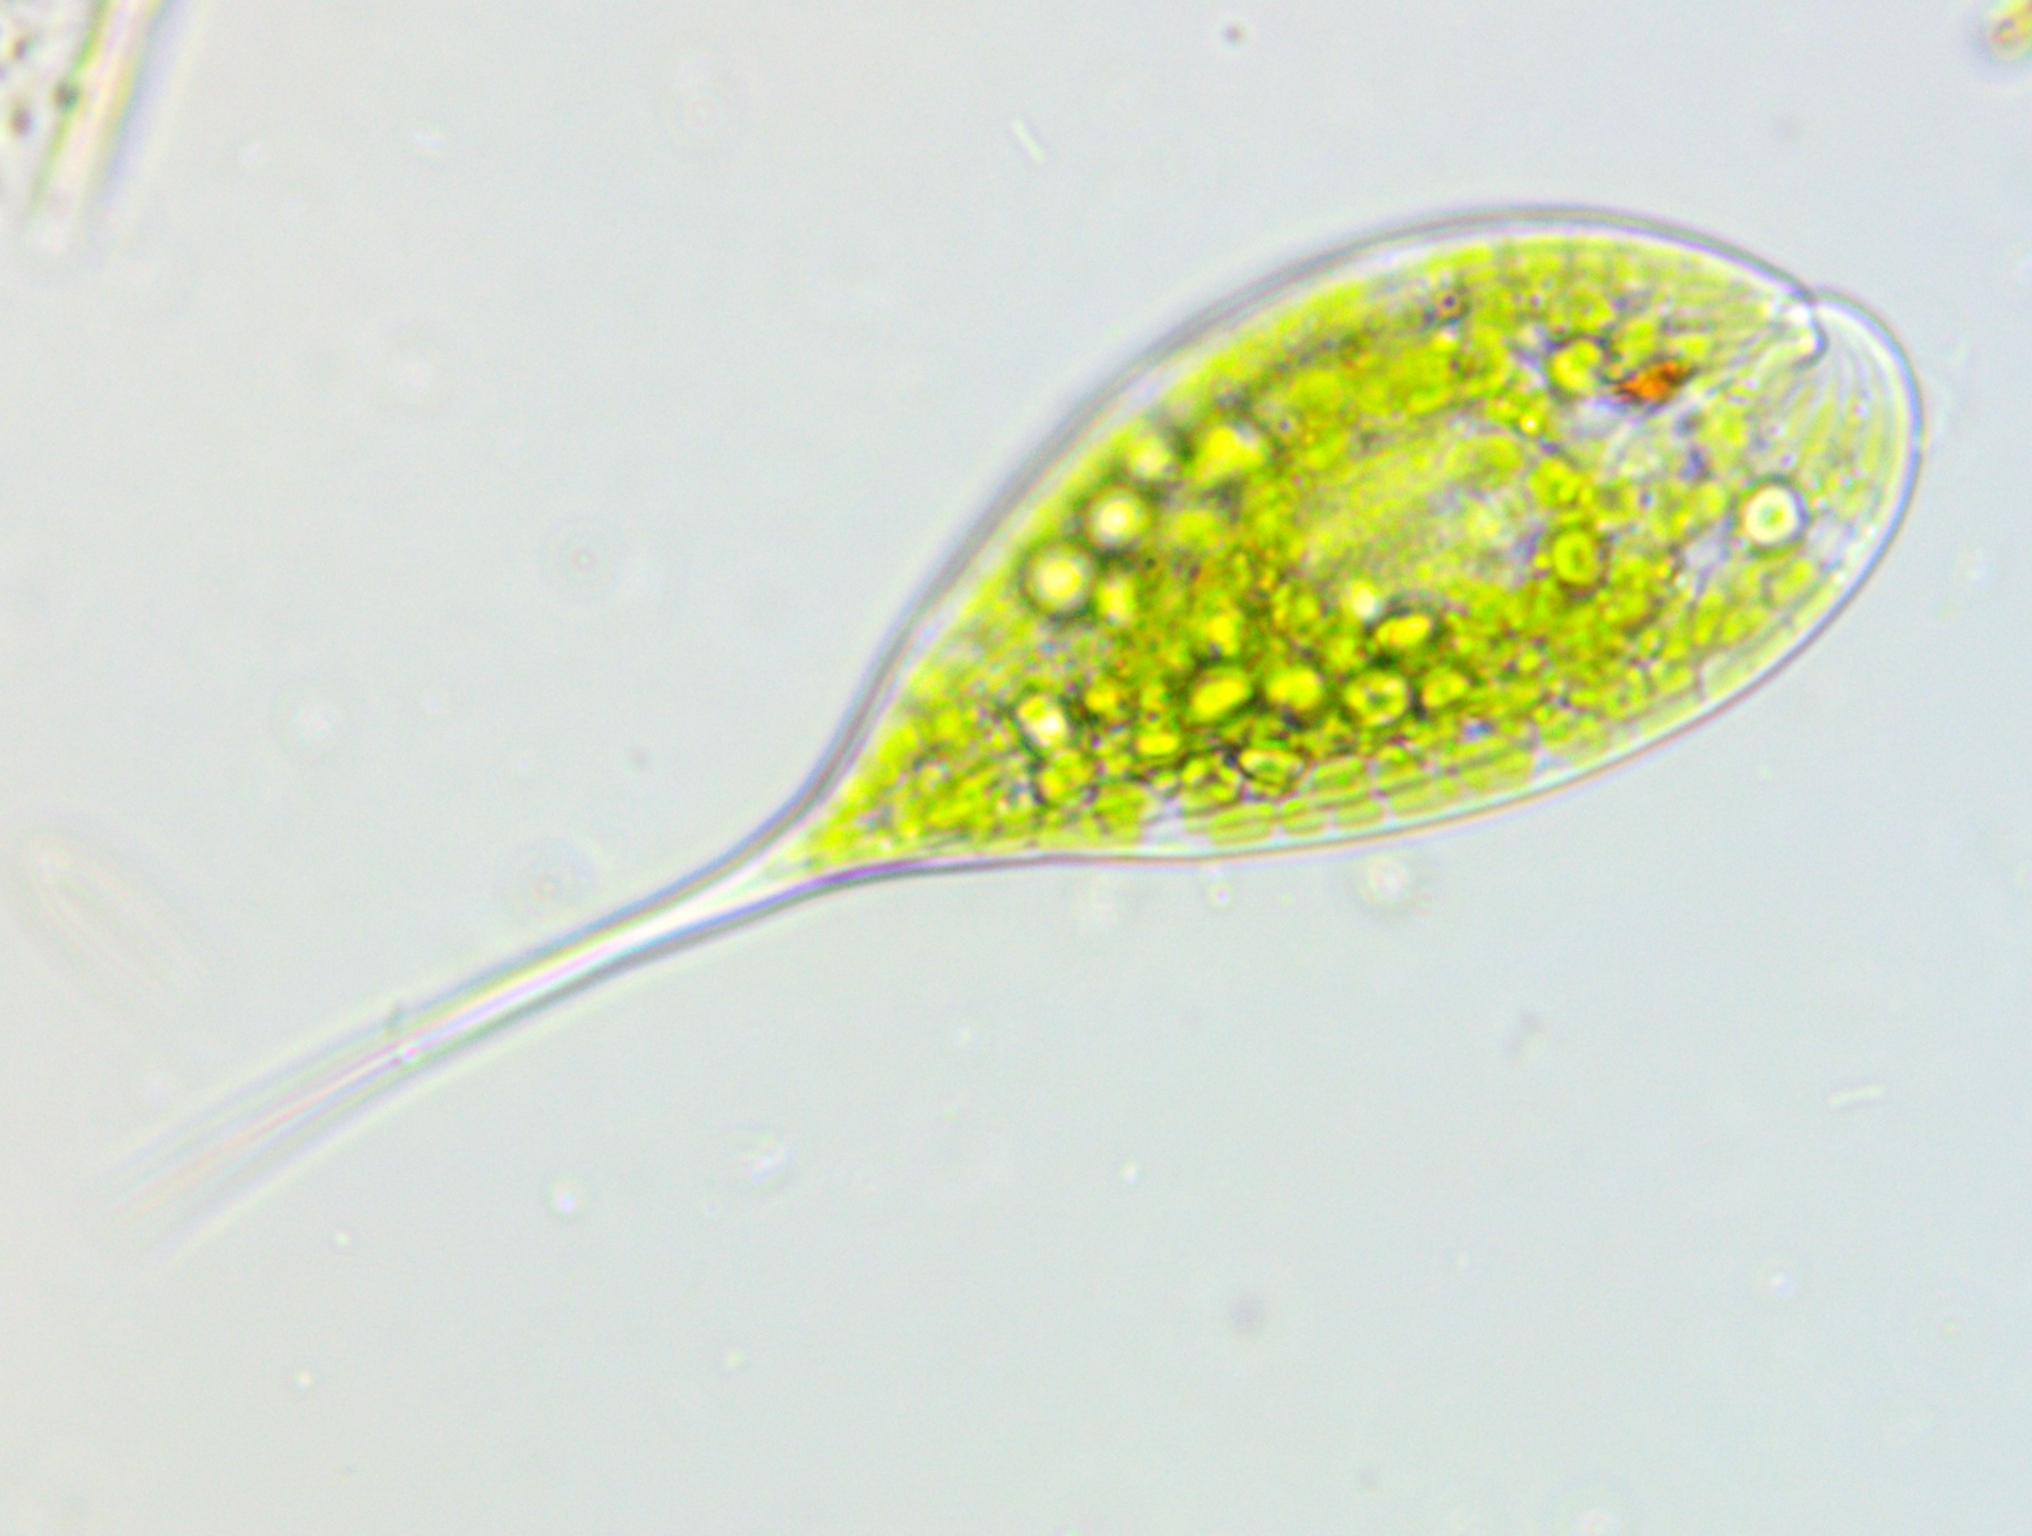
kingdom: Protozoa
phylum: Euglenozoa
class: Euglenoidea
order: Euglenida
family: Phacidae
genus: Phacus
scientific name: Phacus elegans
